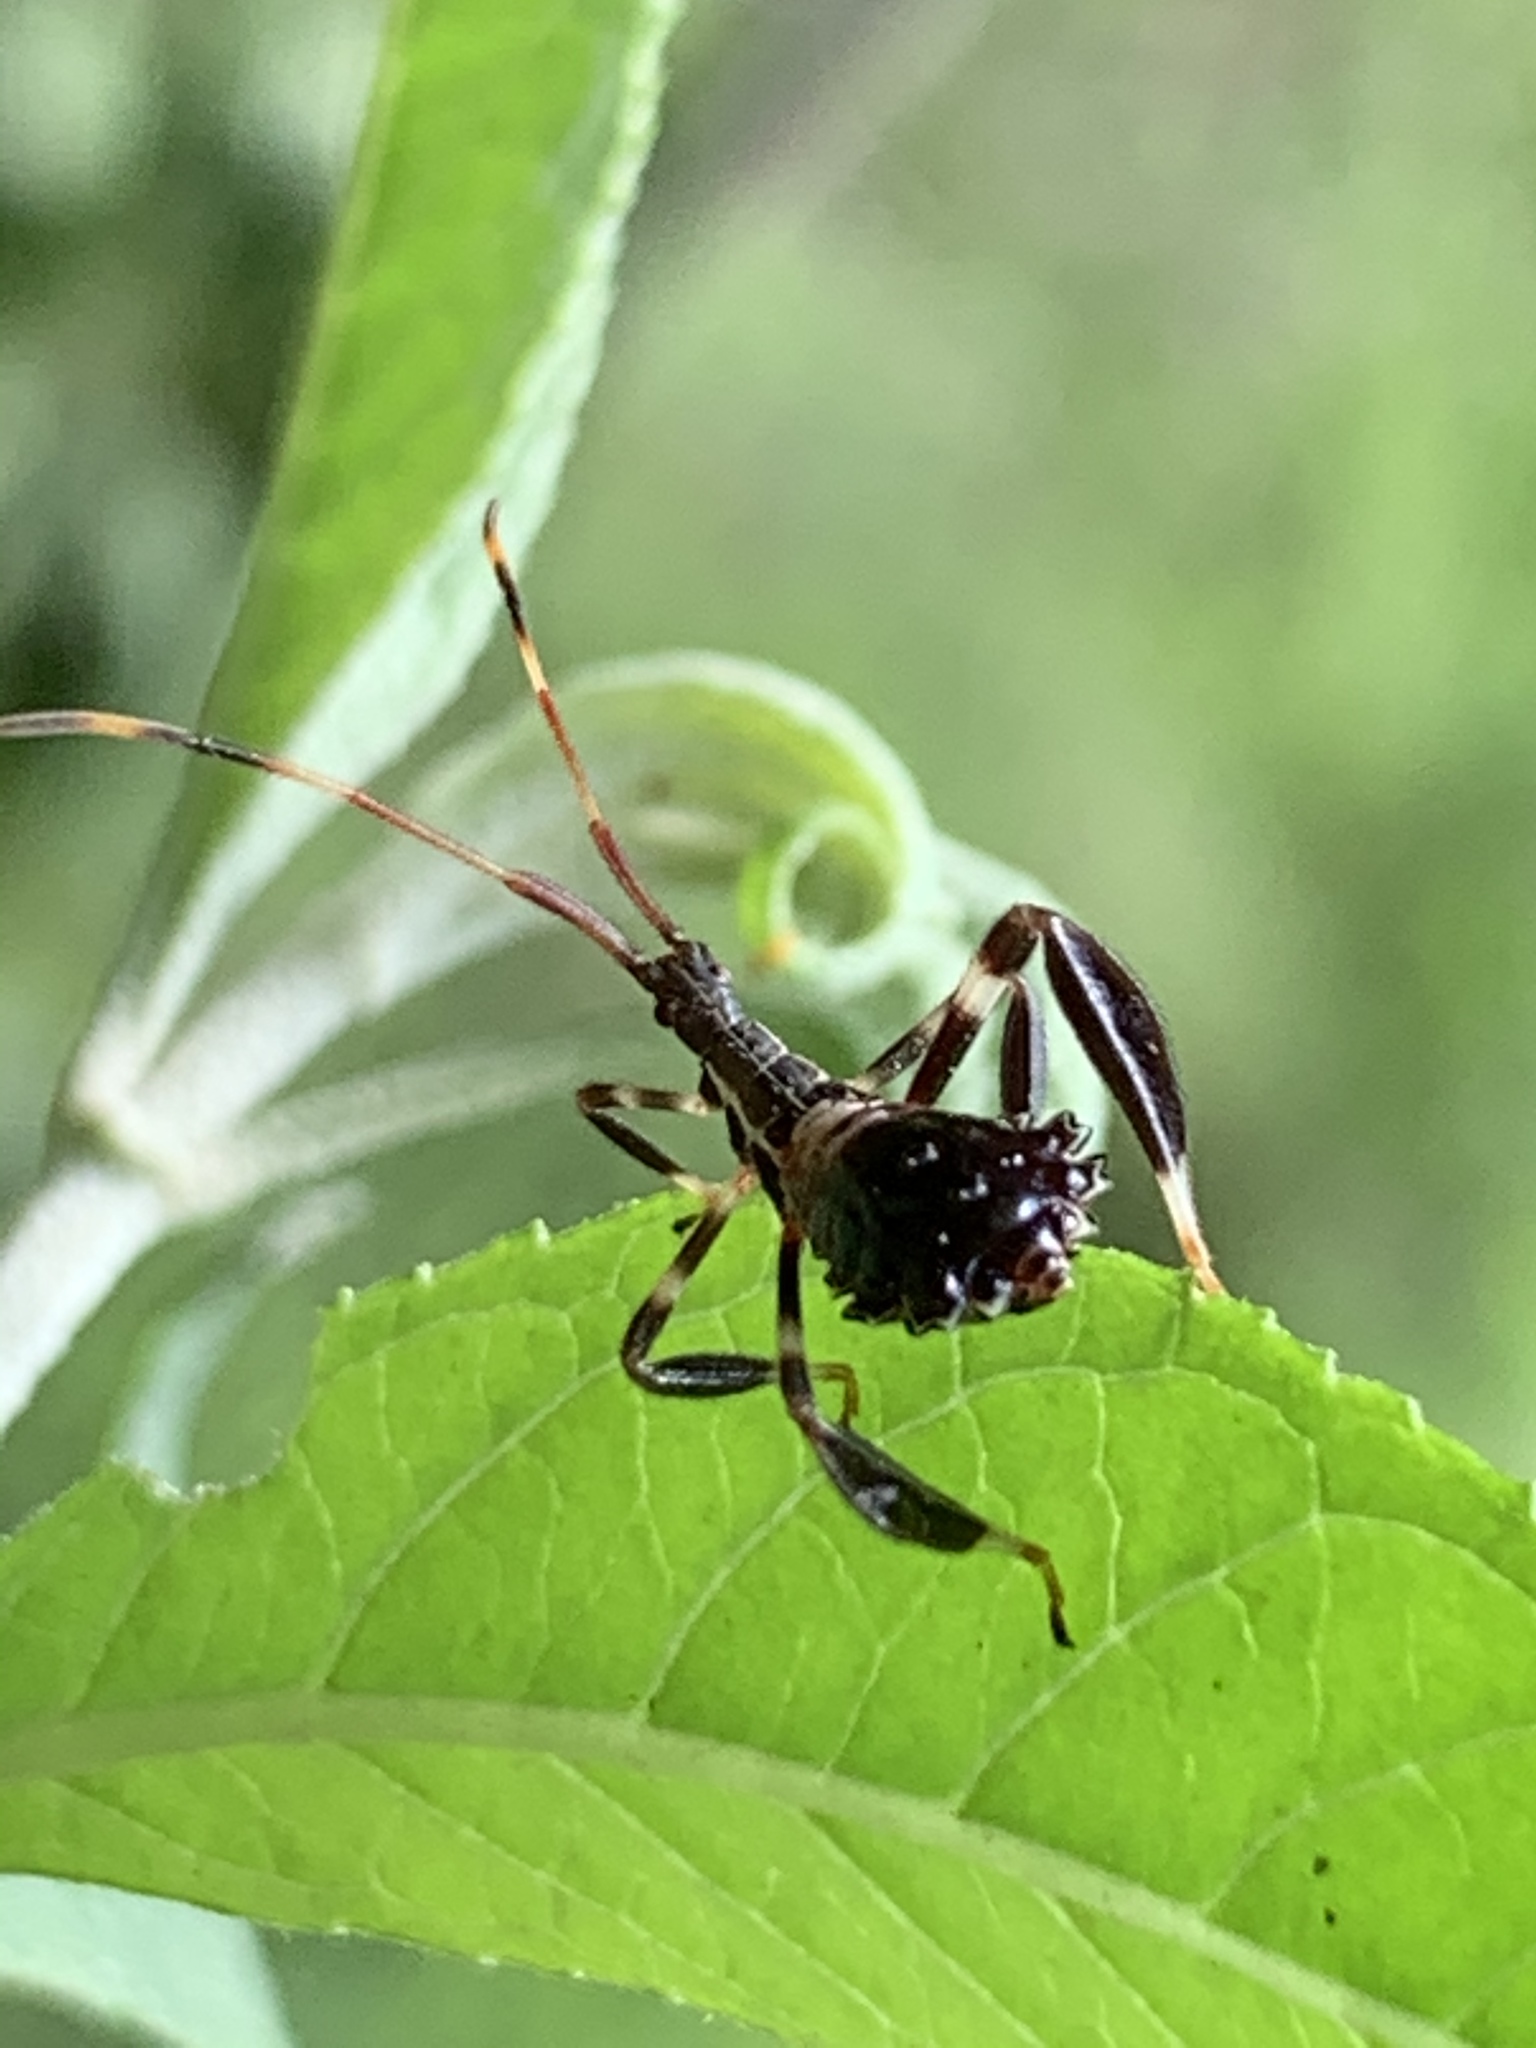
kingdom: Animalia
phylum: Arthropoda
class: Insecta
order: Hemiptera
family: Coreidae
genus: Acanthocephala
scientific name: Acanthocephala terminalis
